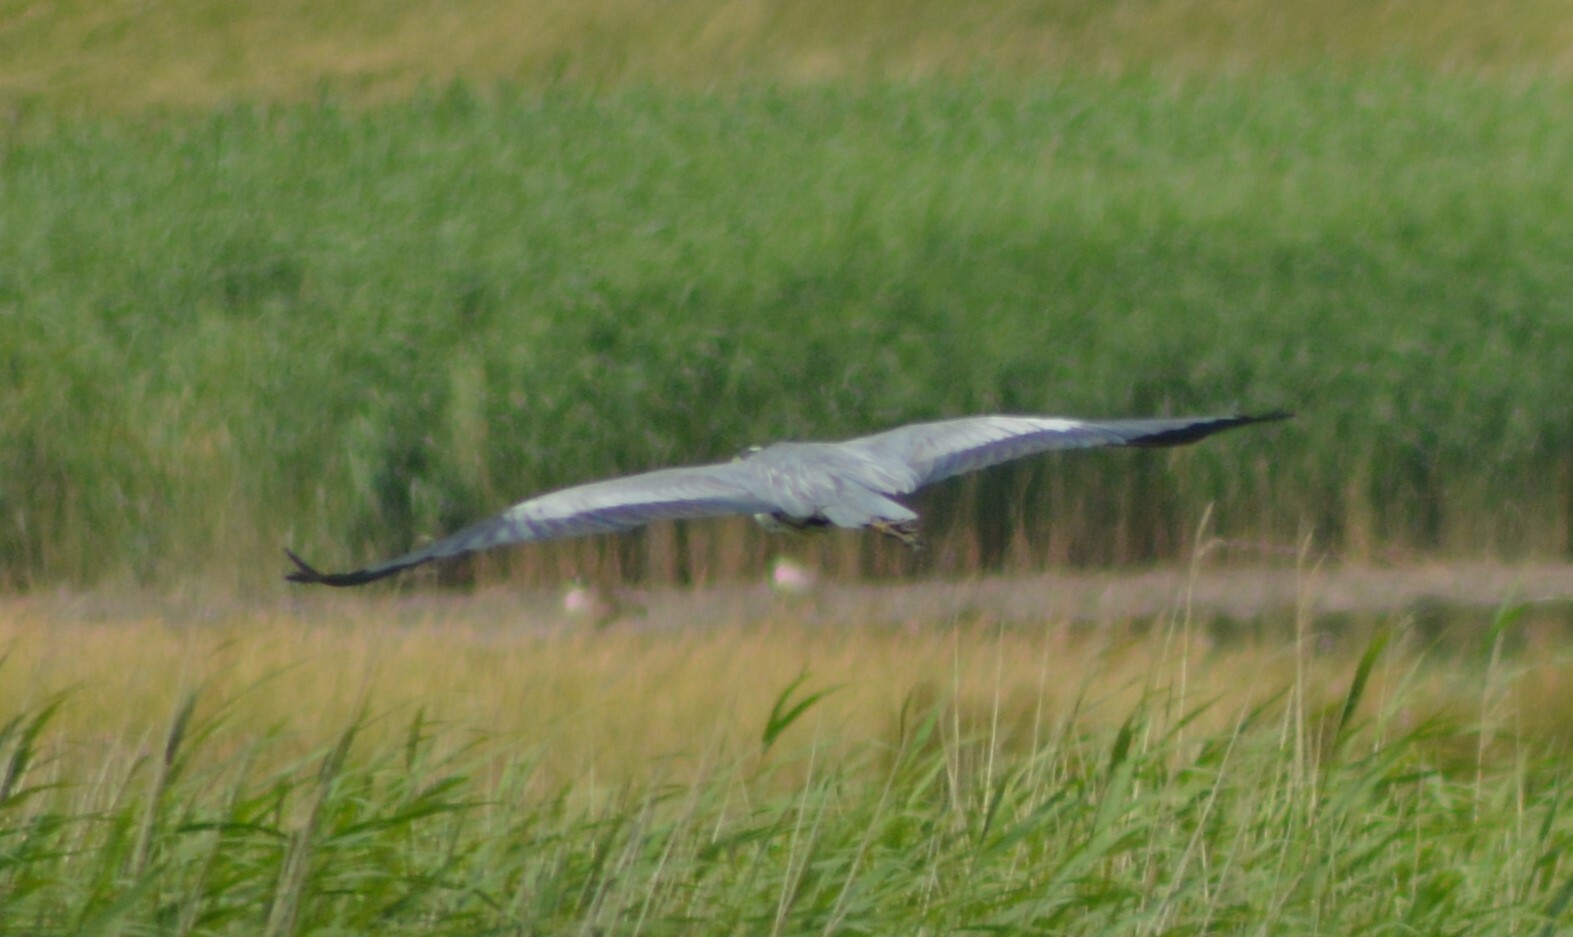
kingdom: Animalia
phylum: Chordata
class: Aves
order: Pelecaniformes
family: Ardeidae
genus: Ardea
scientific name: Ardea cinerea
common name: Grey heron
